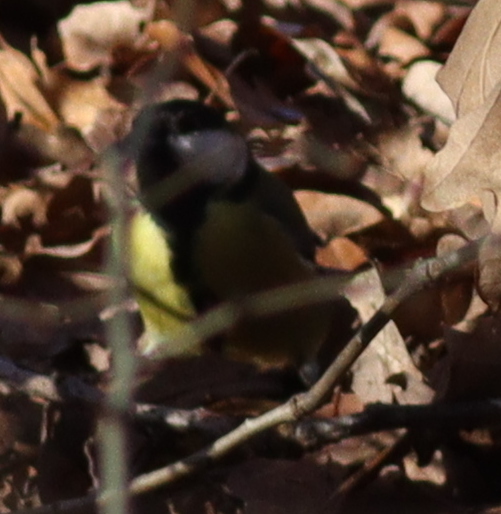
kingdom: Animalia
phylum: Chordata
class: Aves
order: Passeriformes
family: Paridae
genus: Parus
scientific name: Parus major
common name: Great tit
